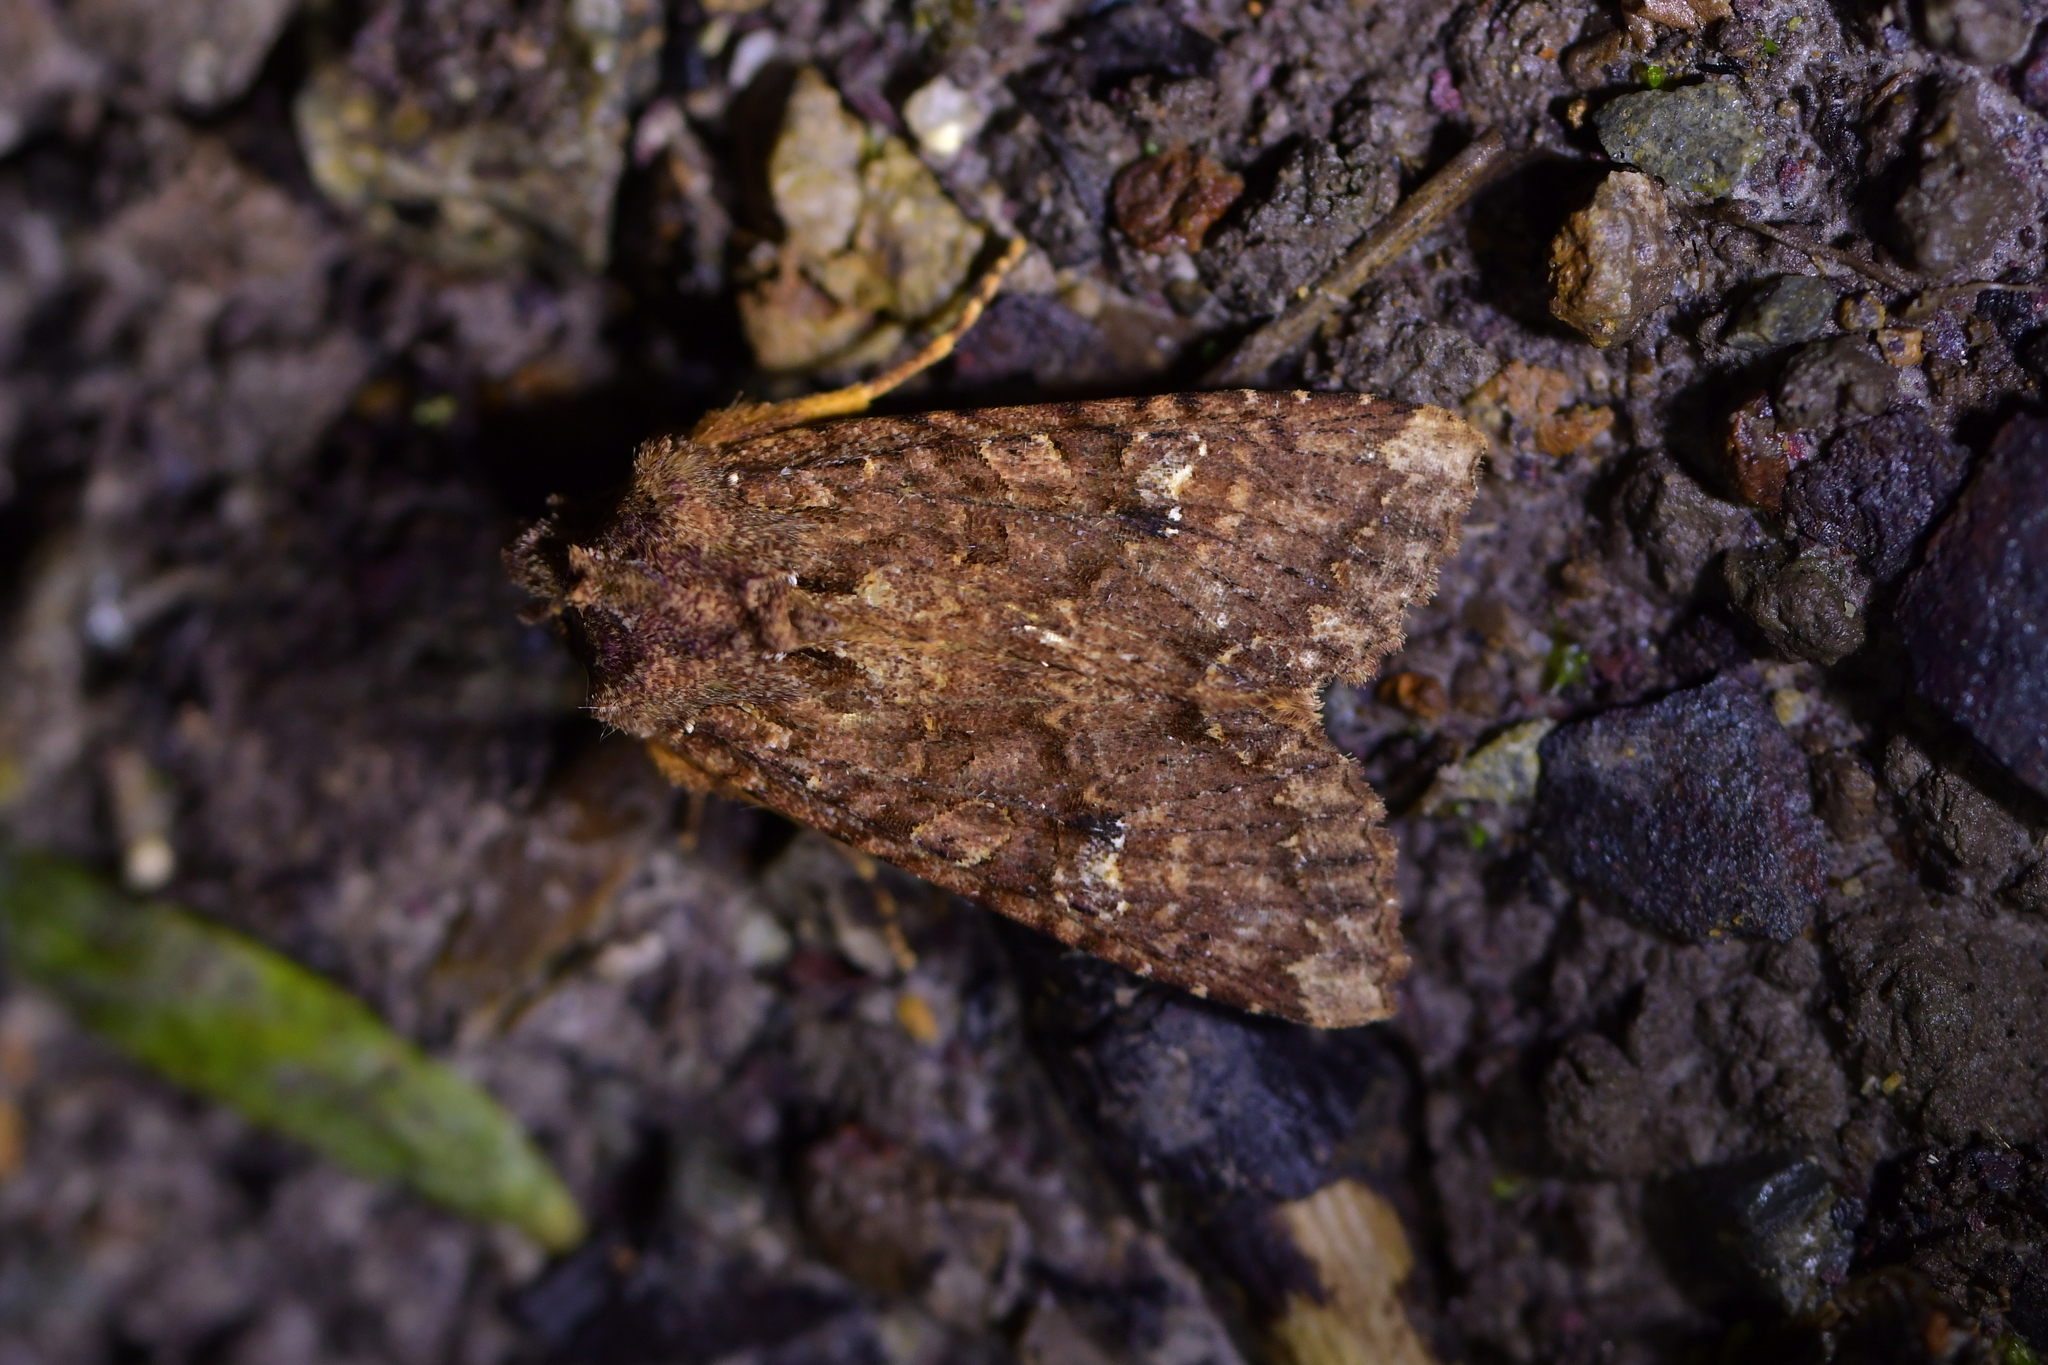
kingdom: Animalia
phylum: Arthropoda
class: Insecta
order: Lepidoptera
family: Noctuidae
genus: Meterana
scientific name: Meterana
